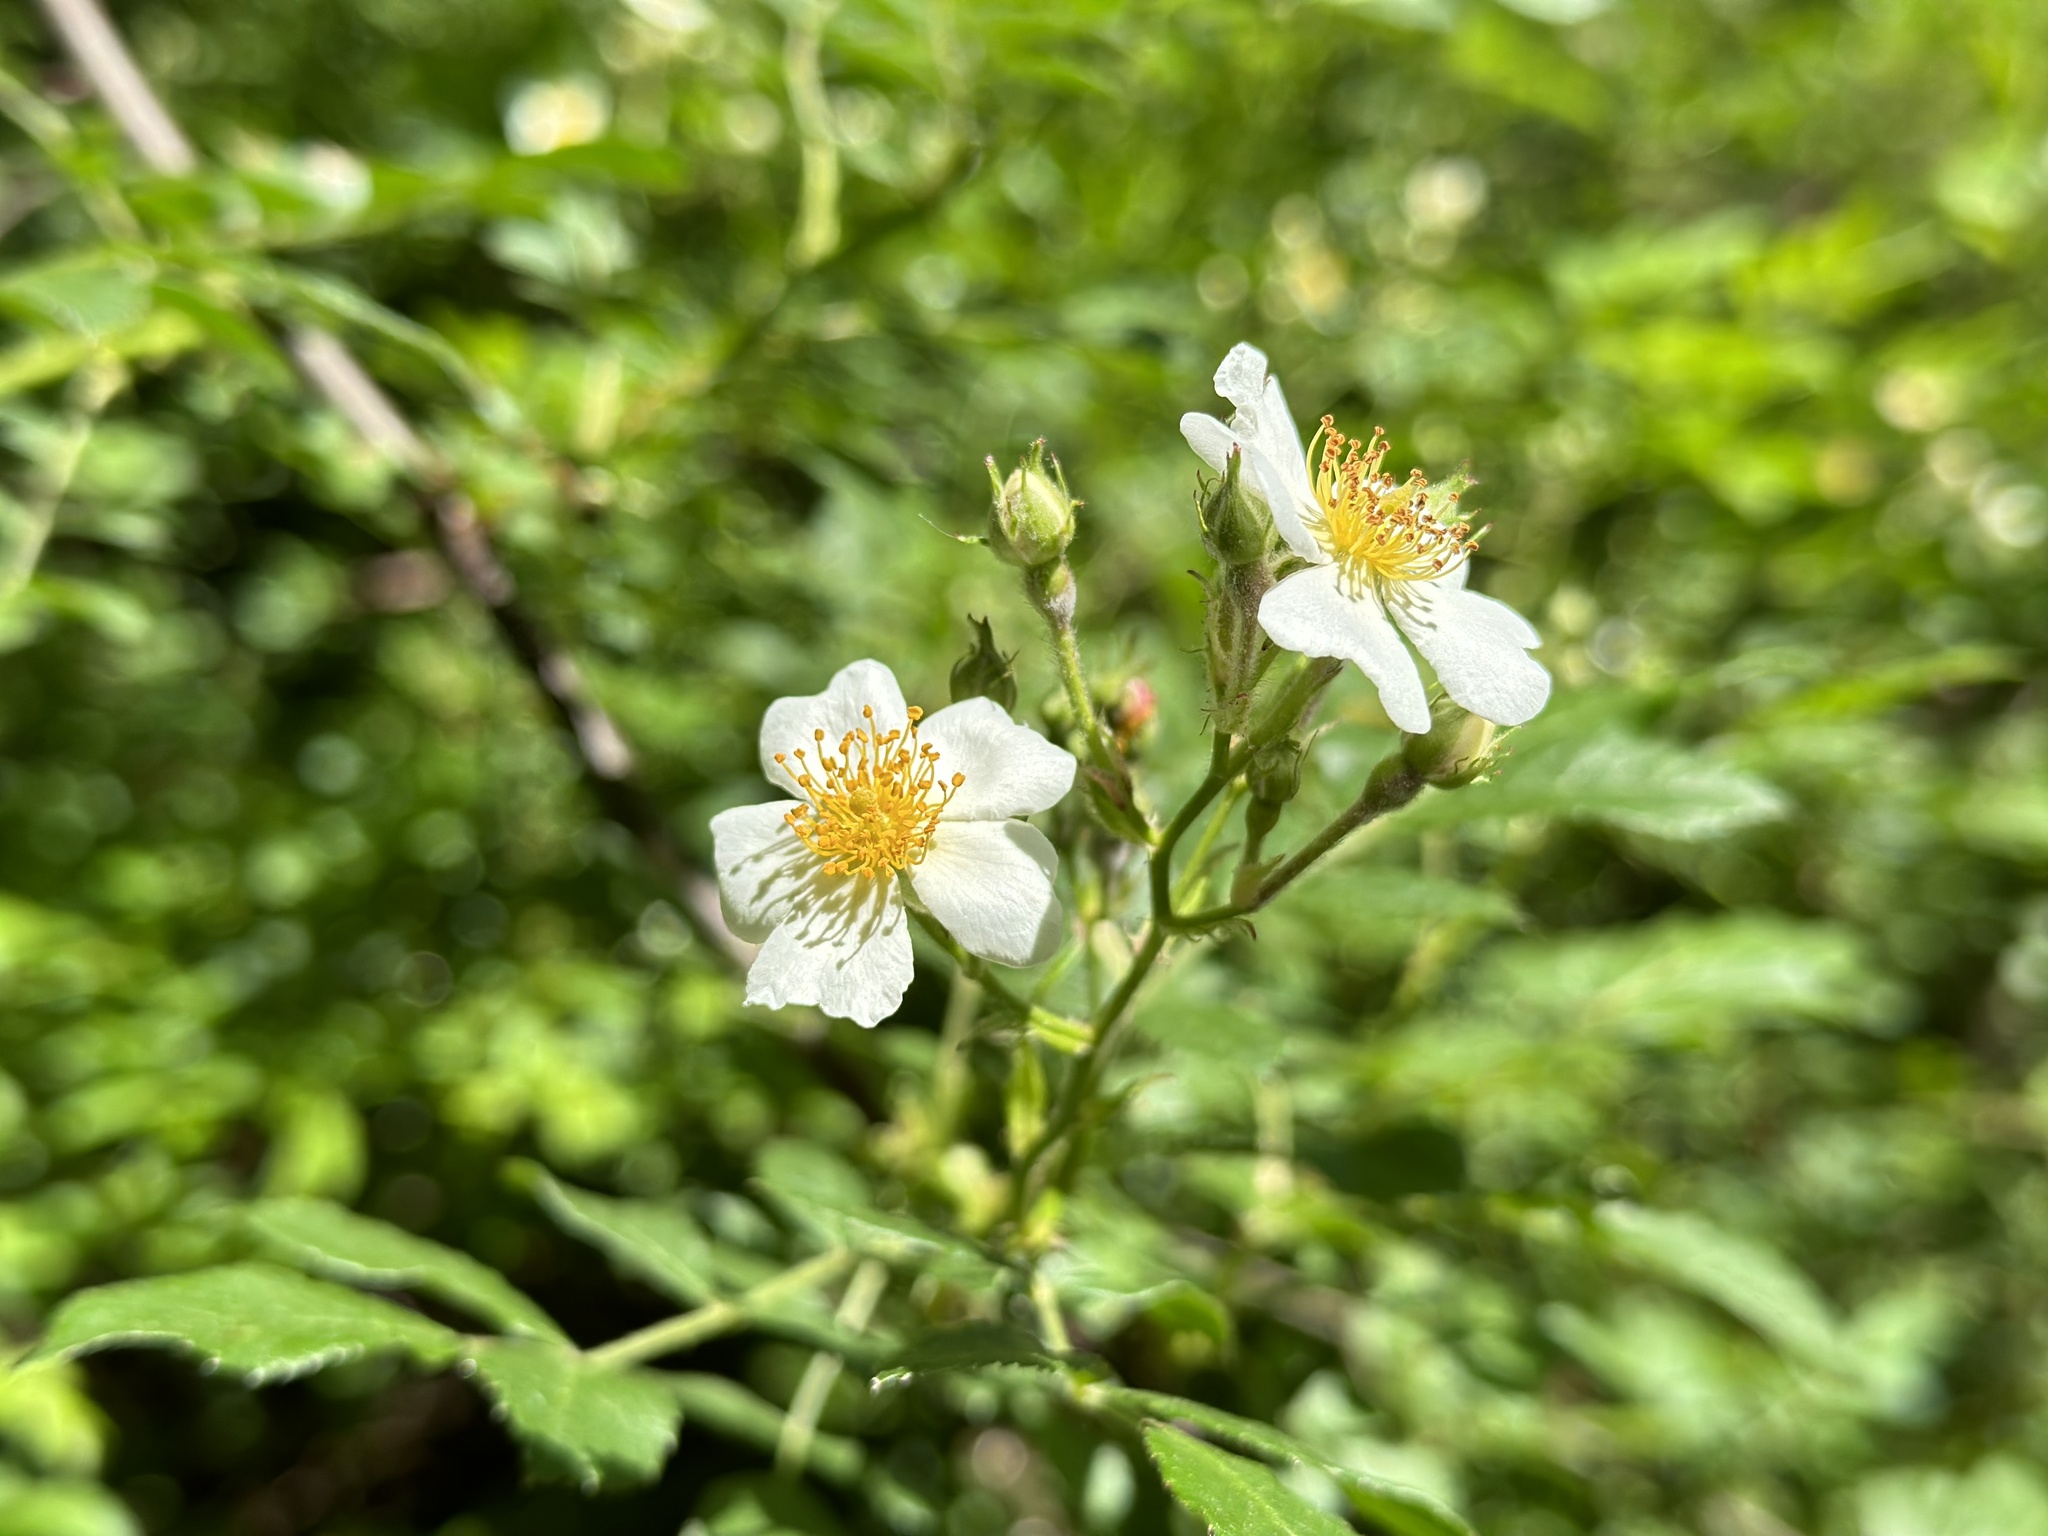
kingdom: Plantae
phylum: Tracheophyta
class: Magnoliopsida
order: Rosales
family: Rosaceae
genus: Rosa
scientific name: Rosa multiflora
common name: Multiflora rose
